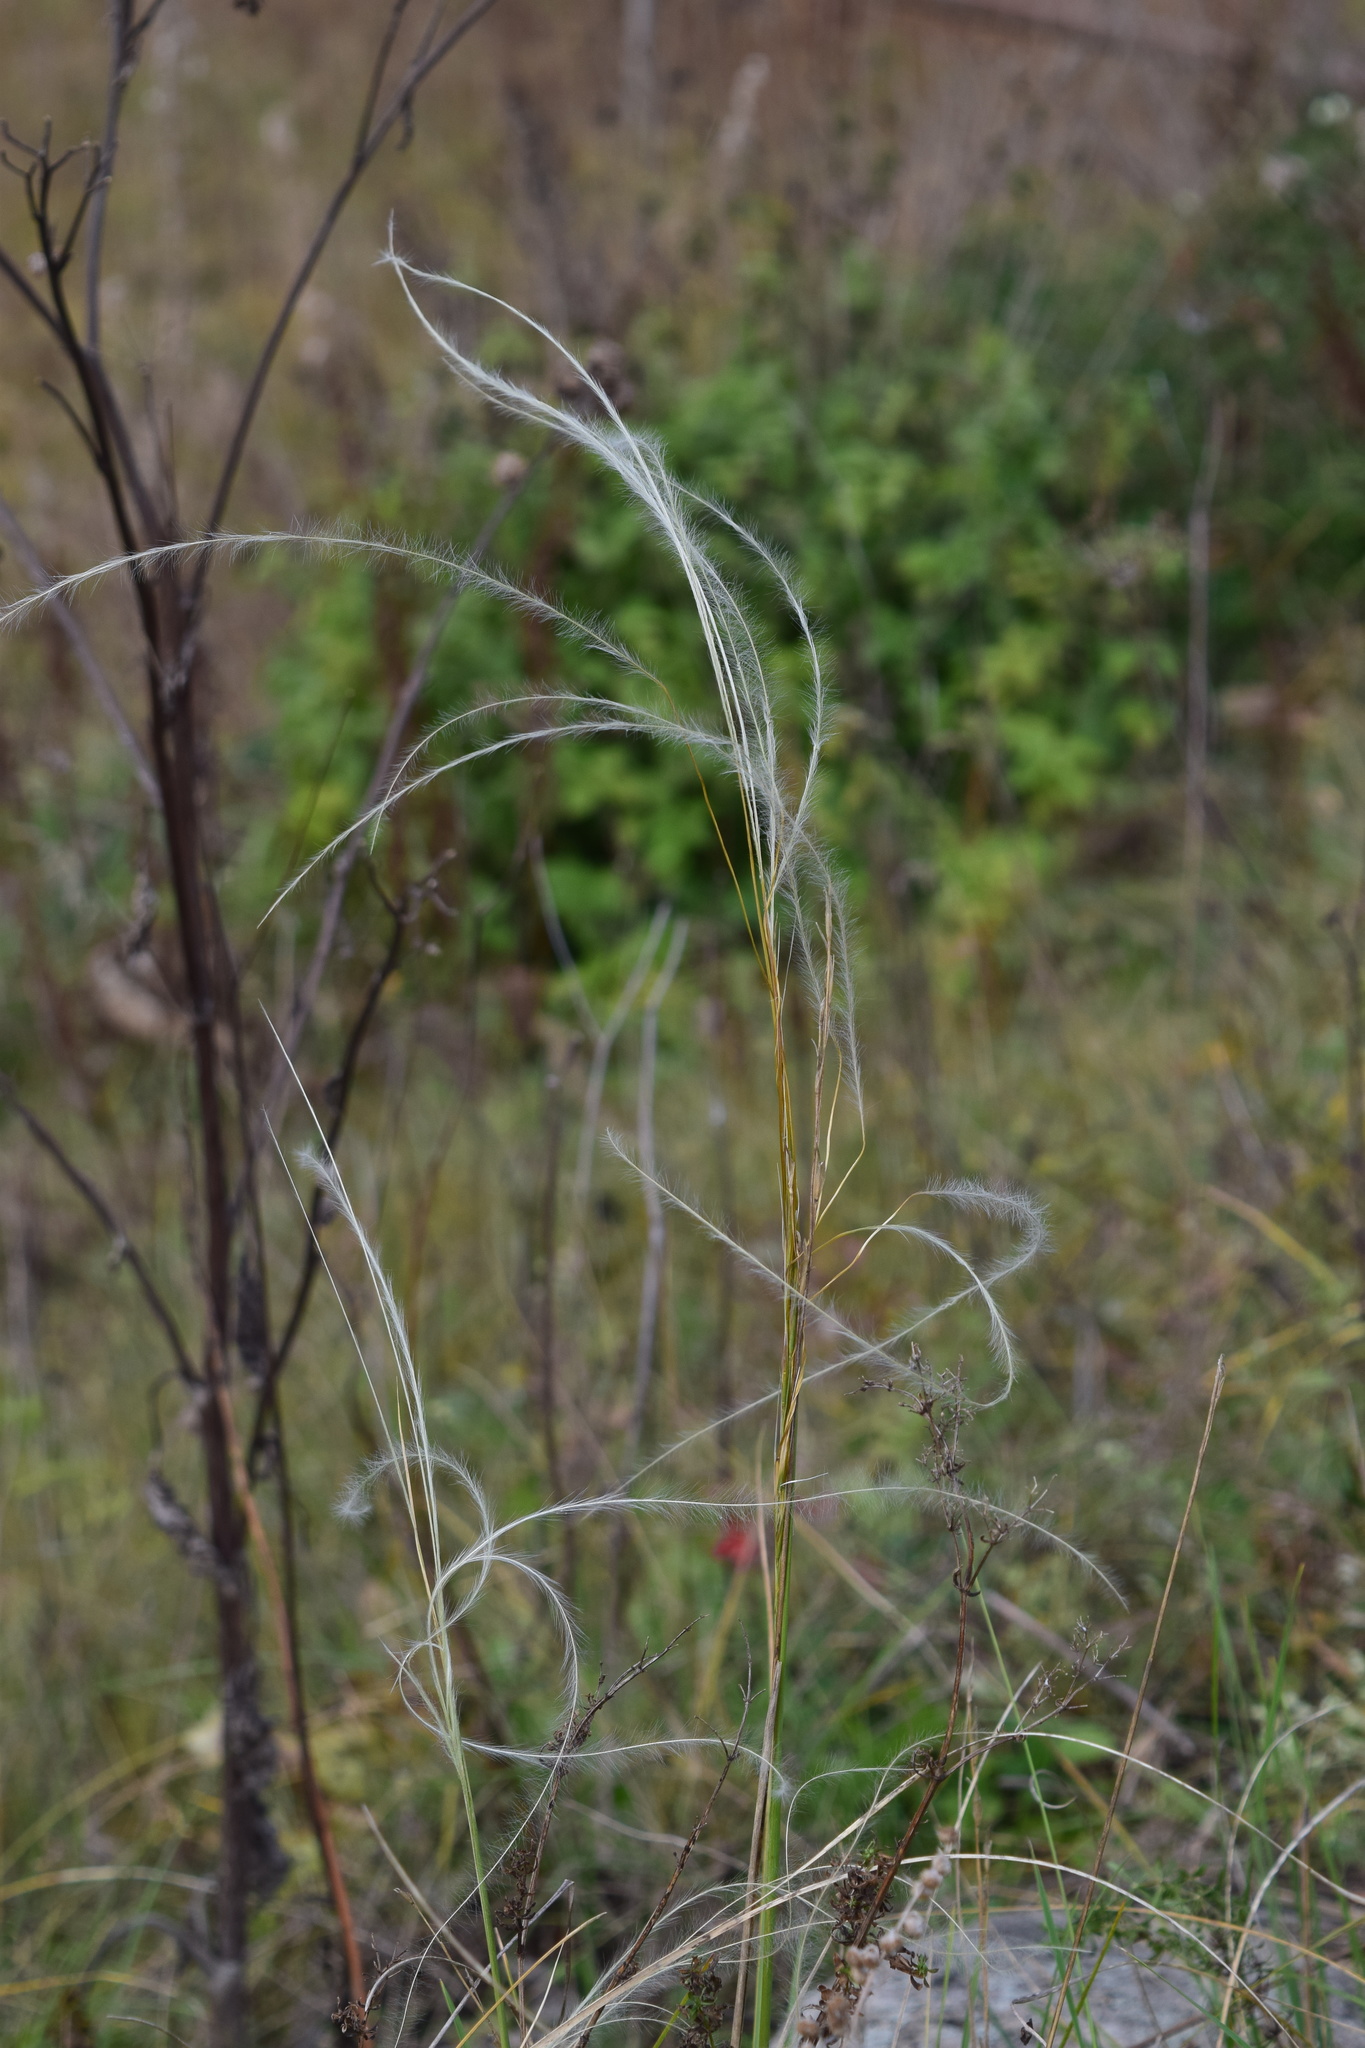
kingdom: Plantae
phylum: Tracheophyta
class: Liliopsida
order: Poales
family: Poaceae
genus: Stipa
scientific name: Stipa pennata
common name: European feather grass
